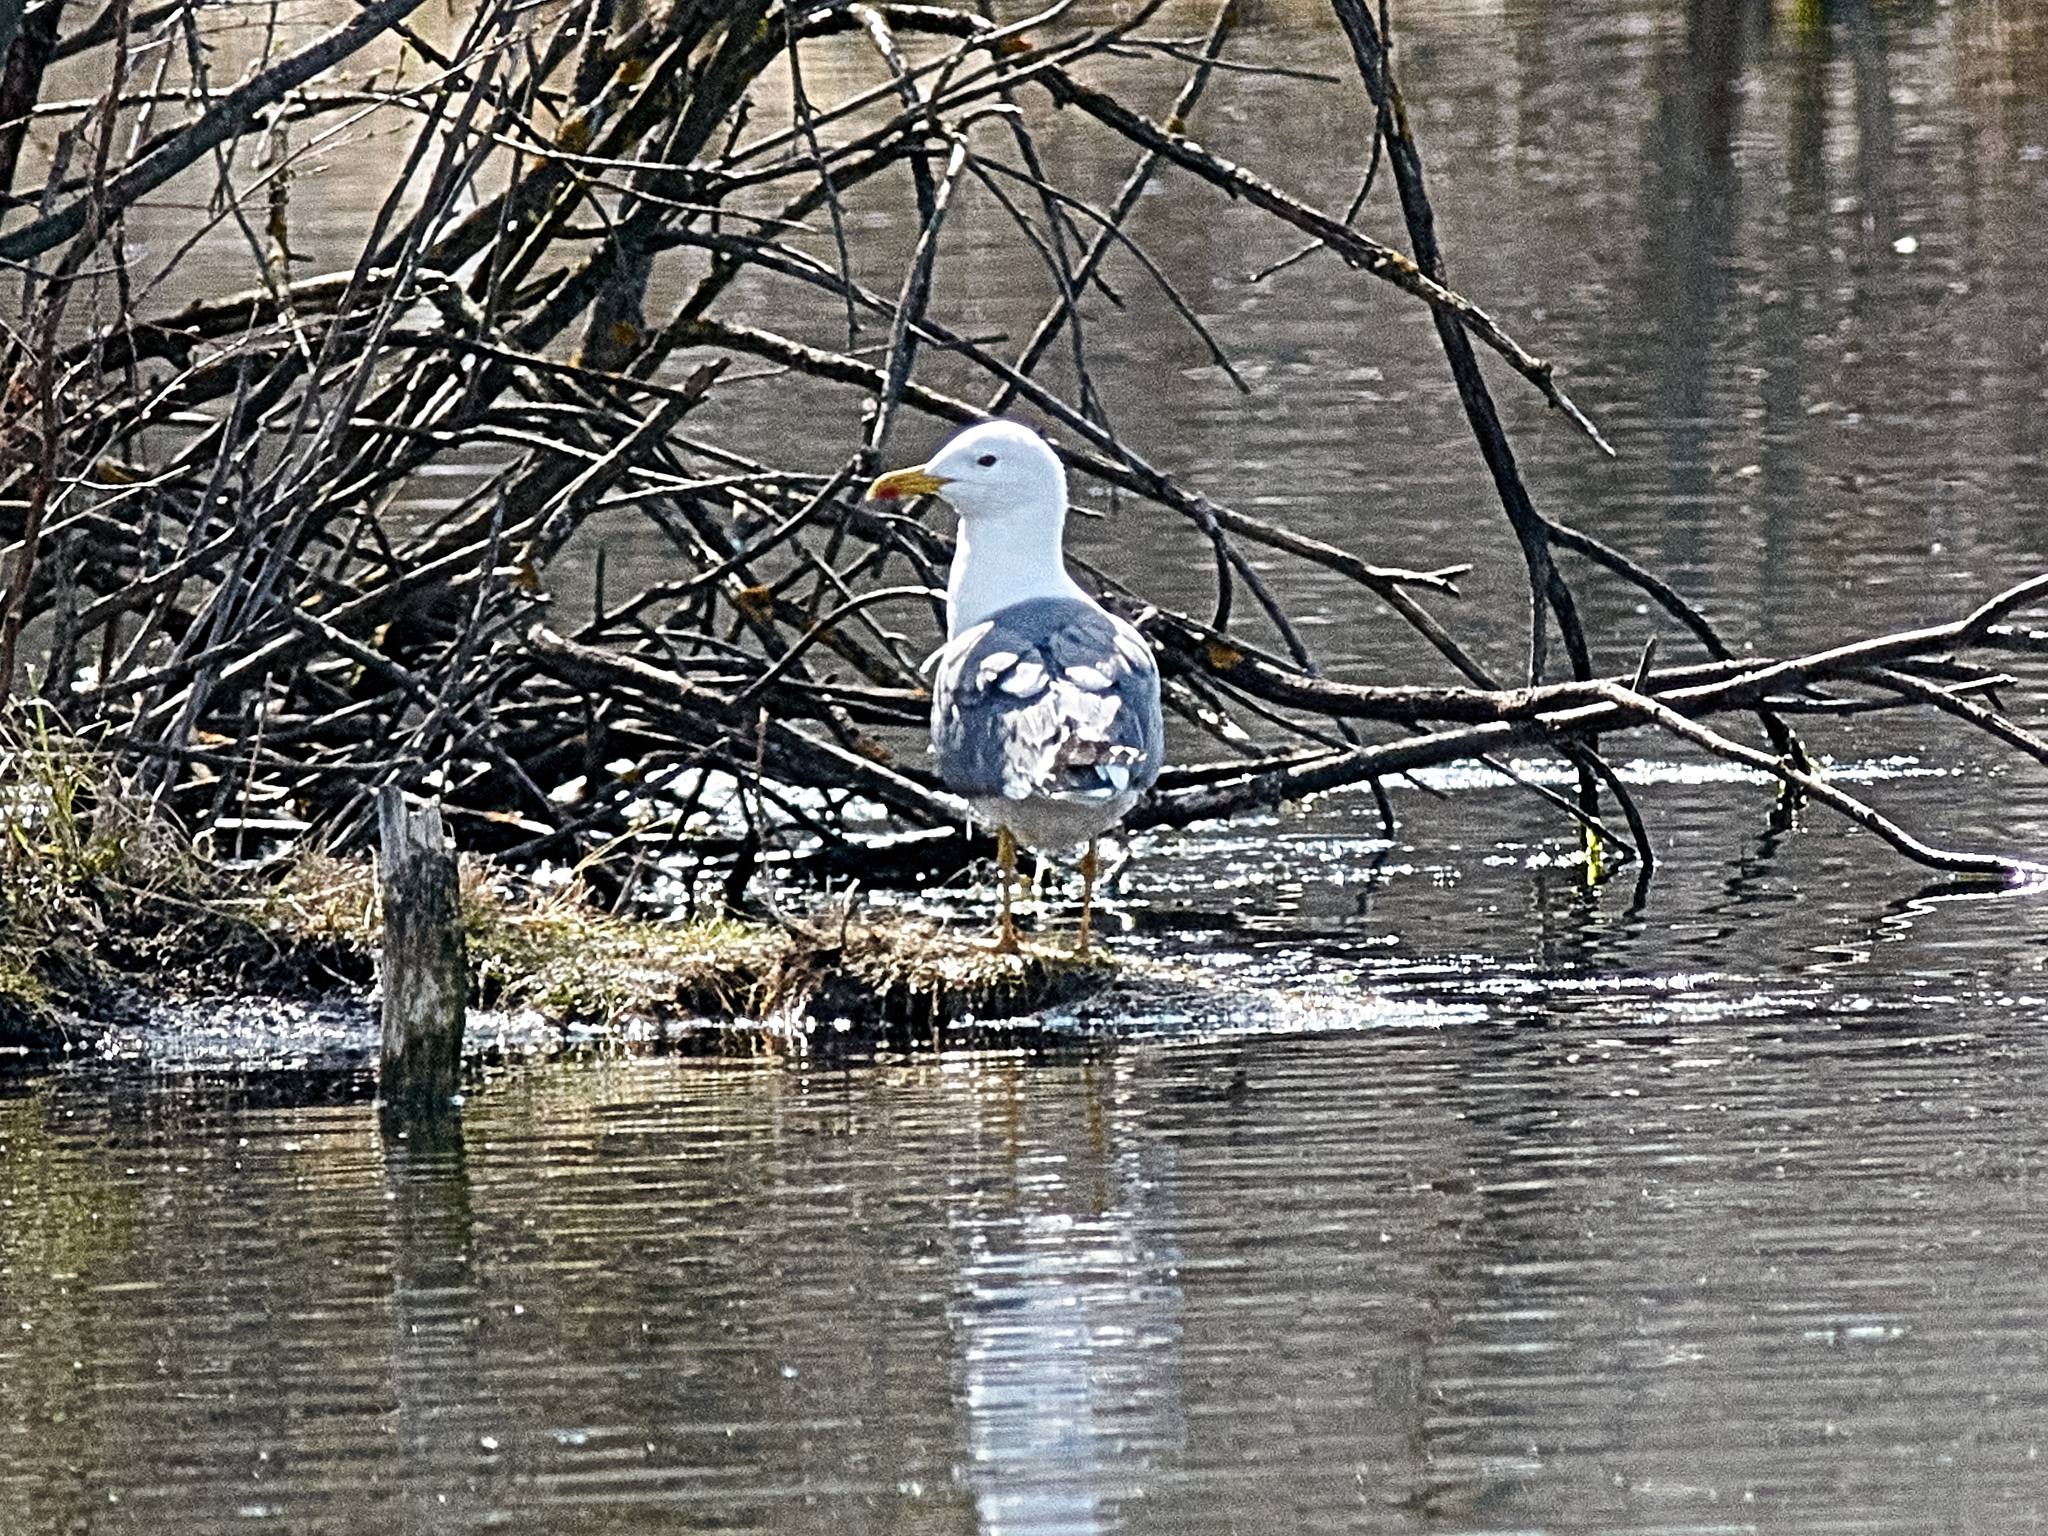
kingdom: Animalia
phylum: Chordata
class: Aves
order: Charadriiformes
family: Laridae
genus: Larus
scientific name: Larus cachinnans
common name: Caspian gull
